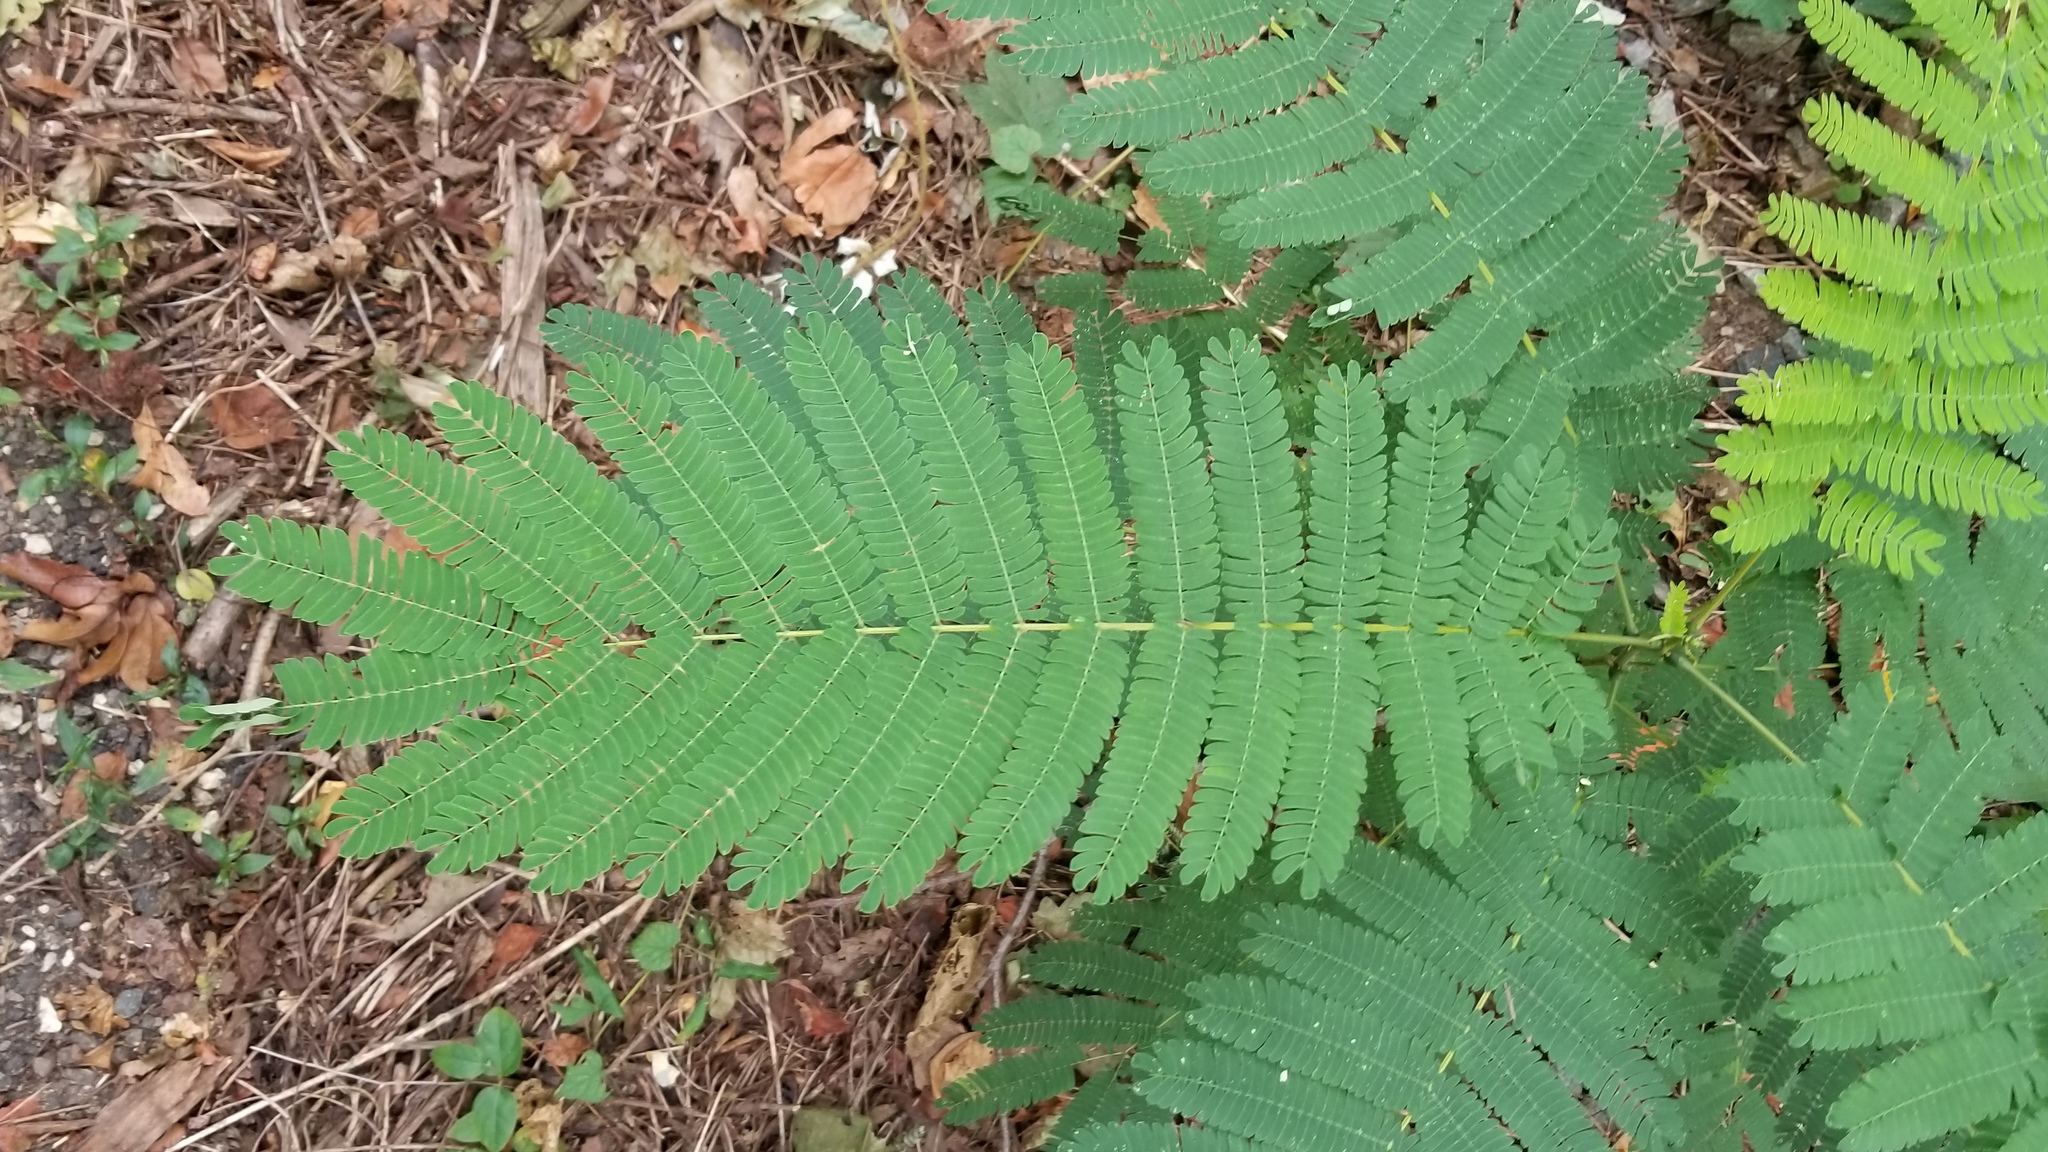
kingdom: Plantae
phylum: Tracheophyta
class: Magnoliopsida
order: Fabales
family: Fabaceae
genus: Albizia
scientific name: Albizia julibrissin
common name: Silktree
